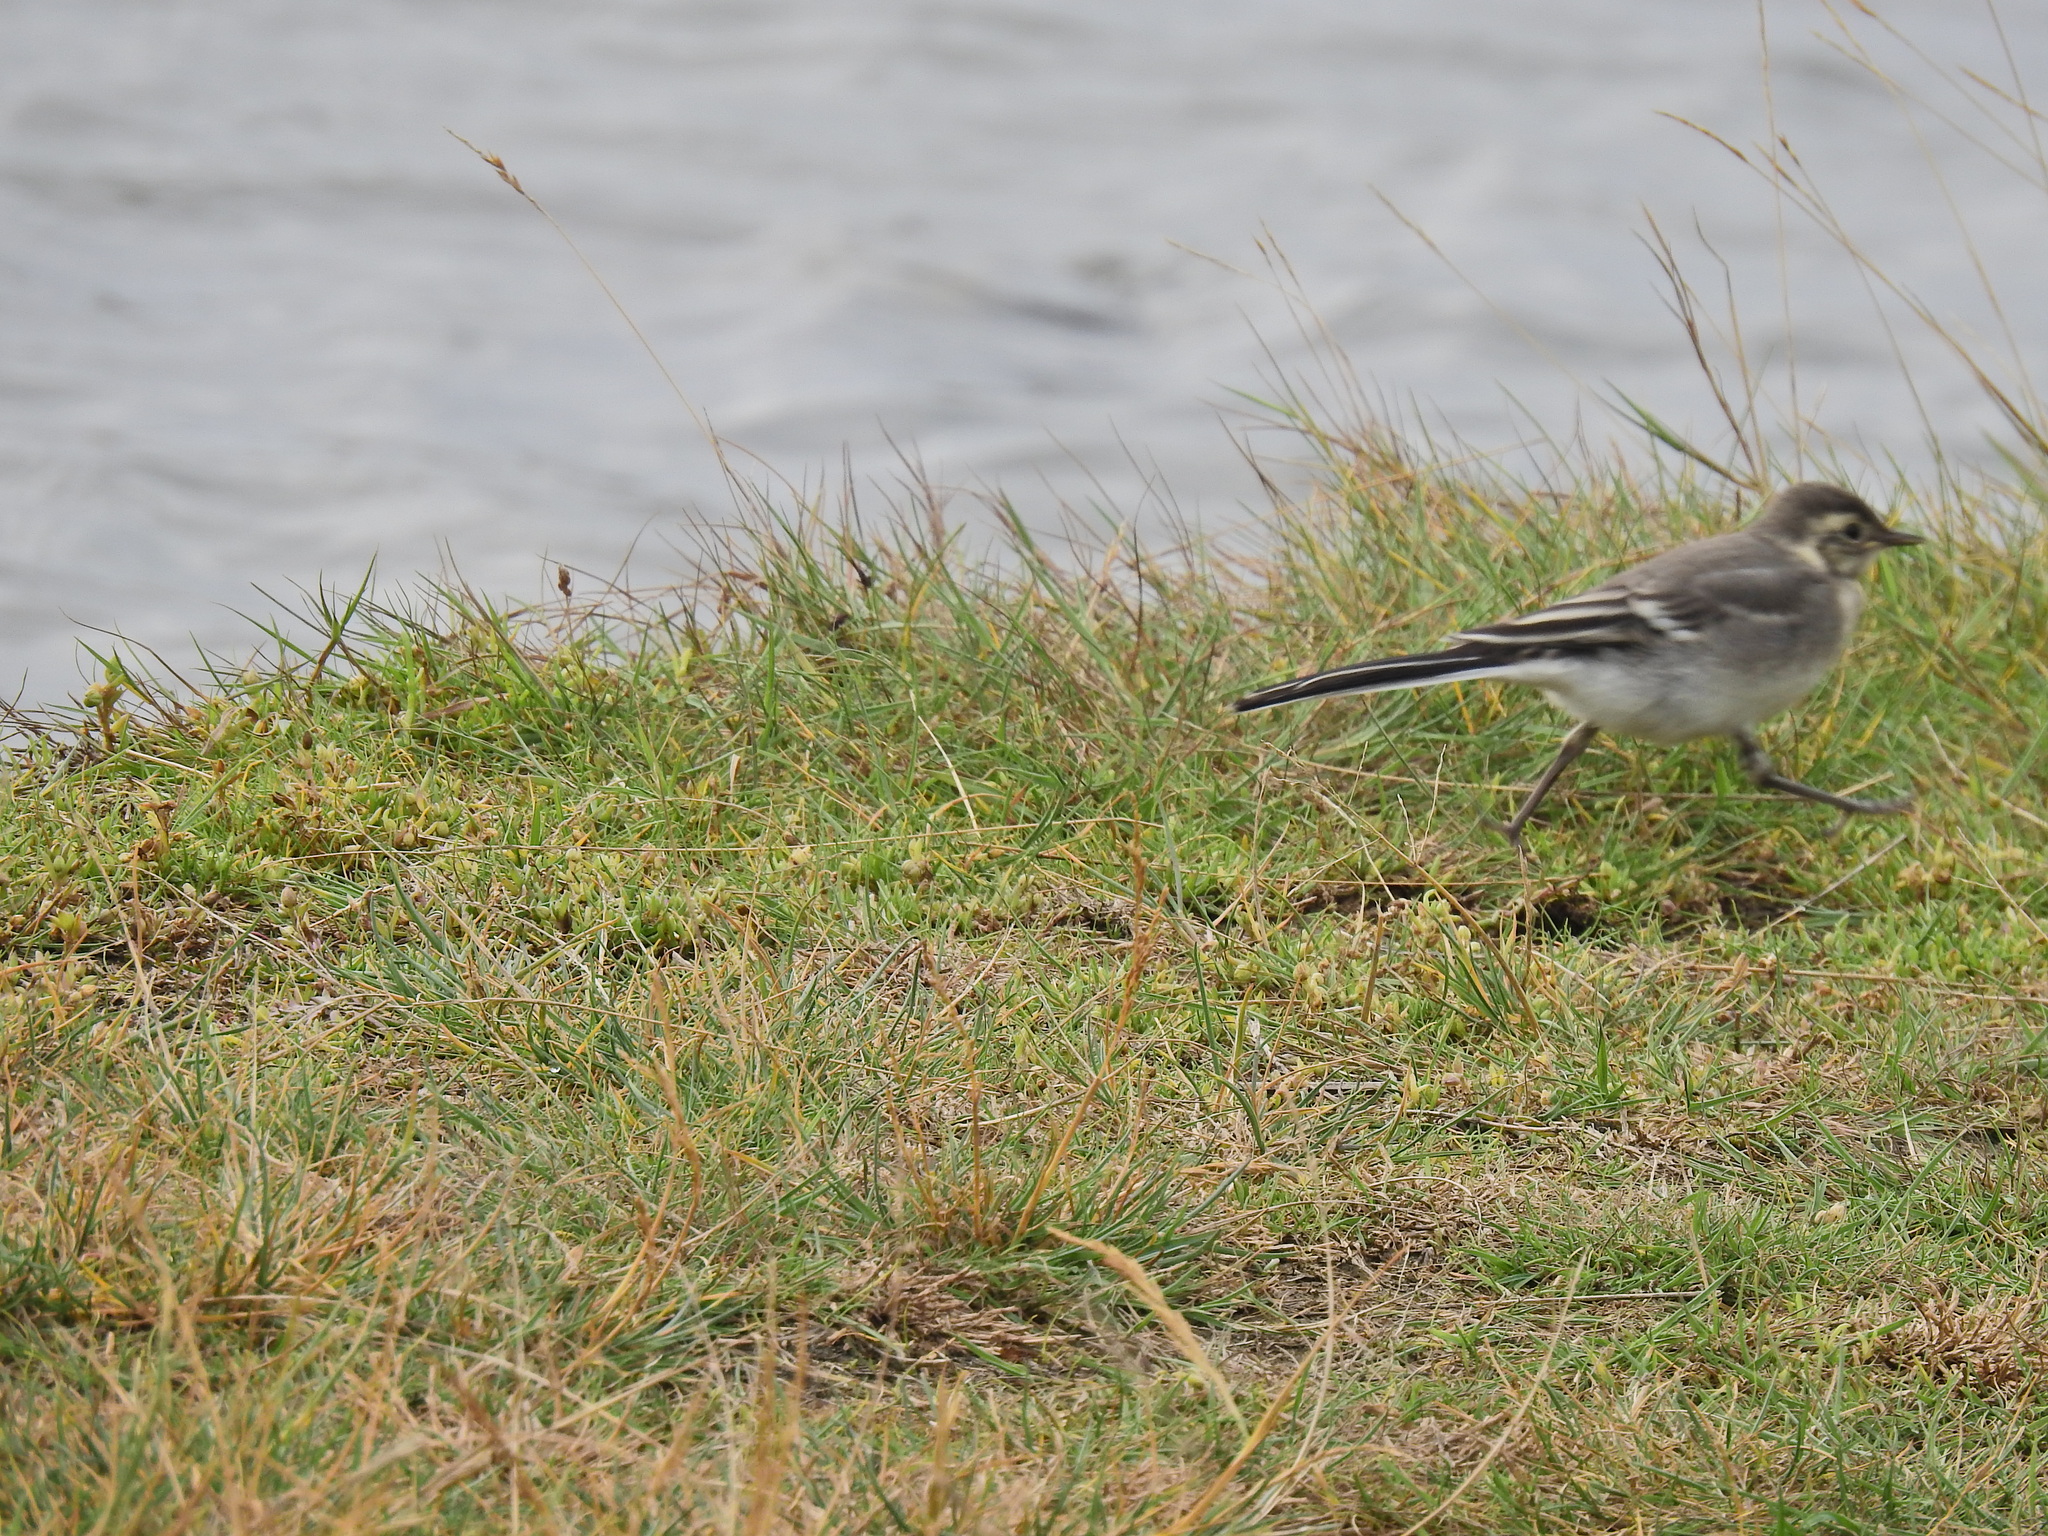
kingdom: Animalia
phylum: Chordata
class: Aves
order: Passeriformes
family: Motacillidae
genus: Motacilla
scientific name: Motacilla alba
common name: White wagtail
